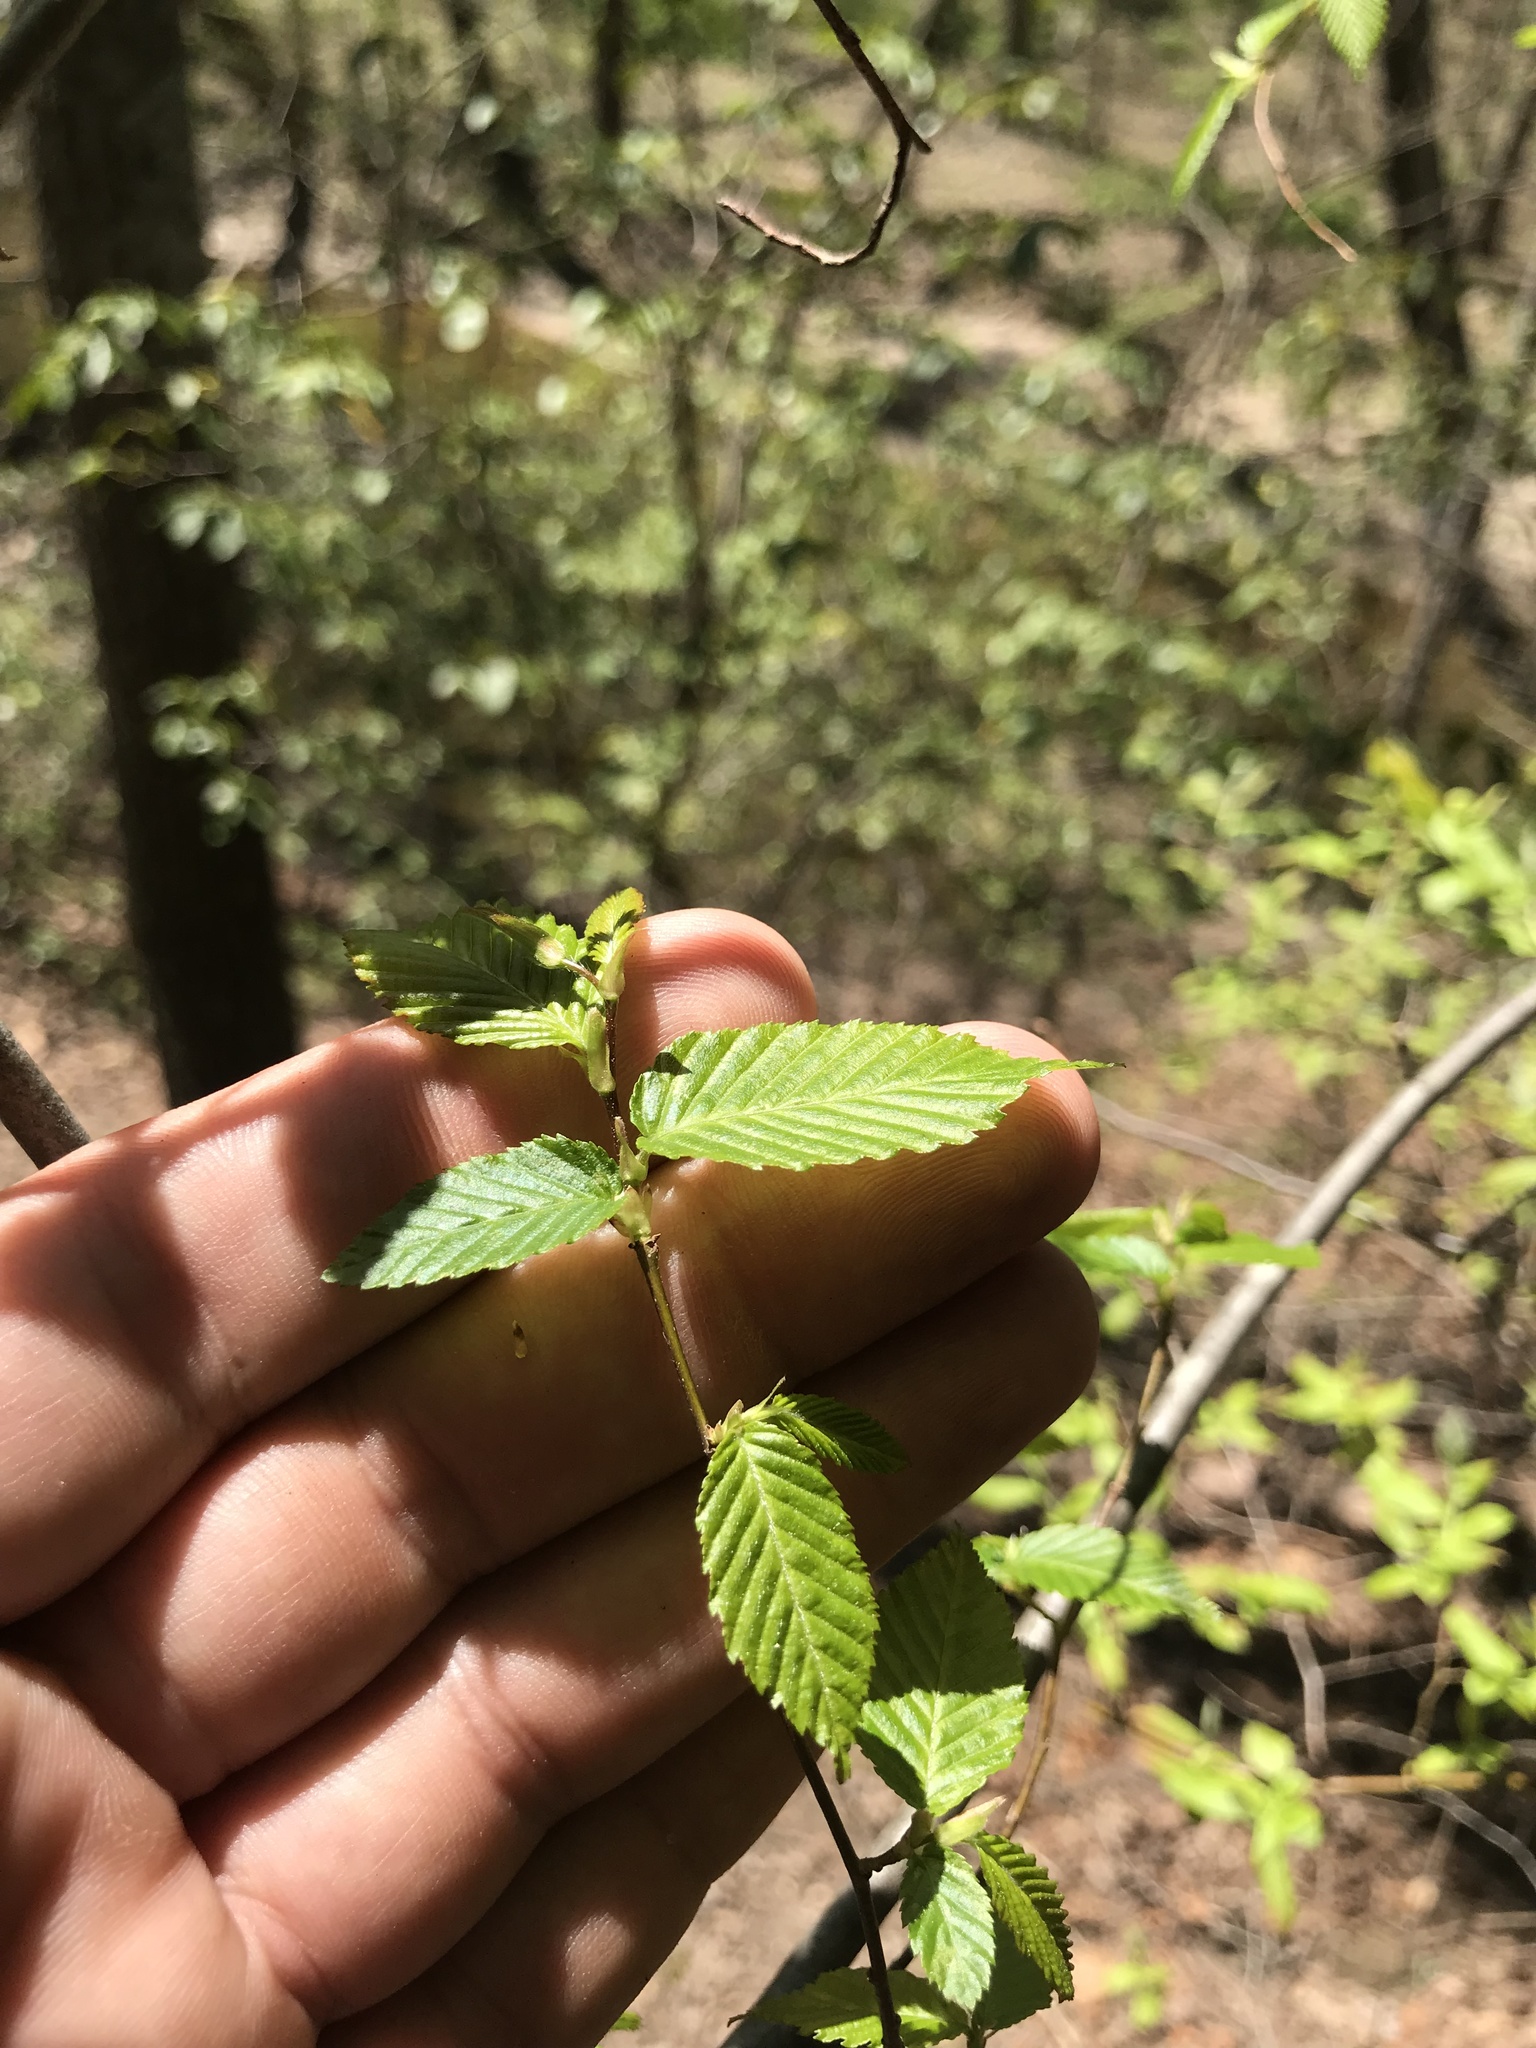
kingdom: Plantae
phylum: Tracheophyta
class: Magnoliopsida
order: Fagales
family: Betulaceae
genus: Carpinus
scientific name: Carpinus caroliniana
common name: American hornbeam
